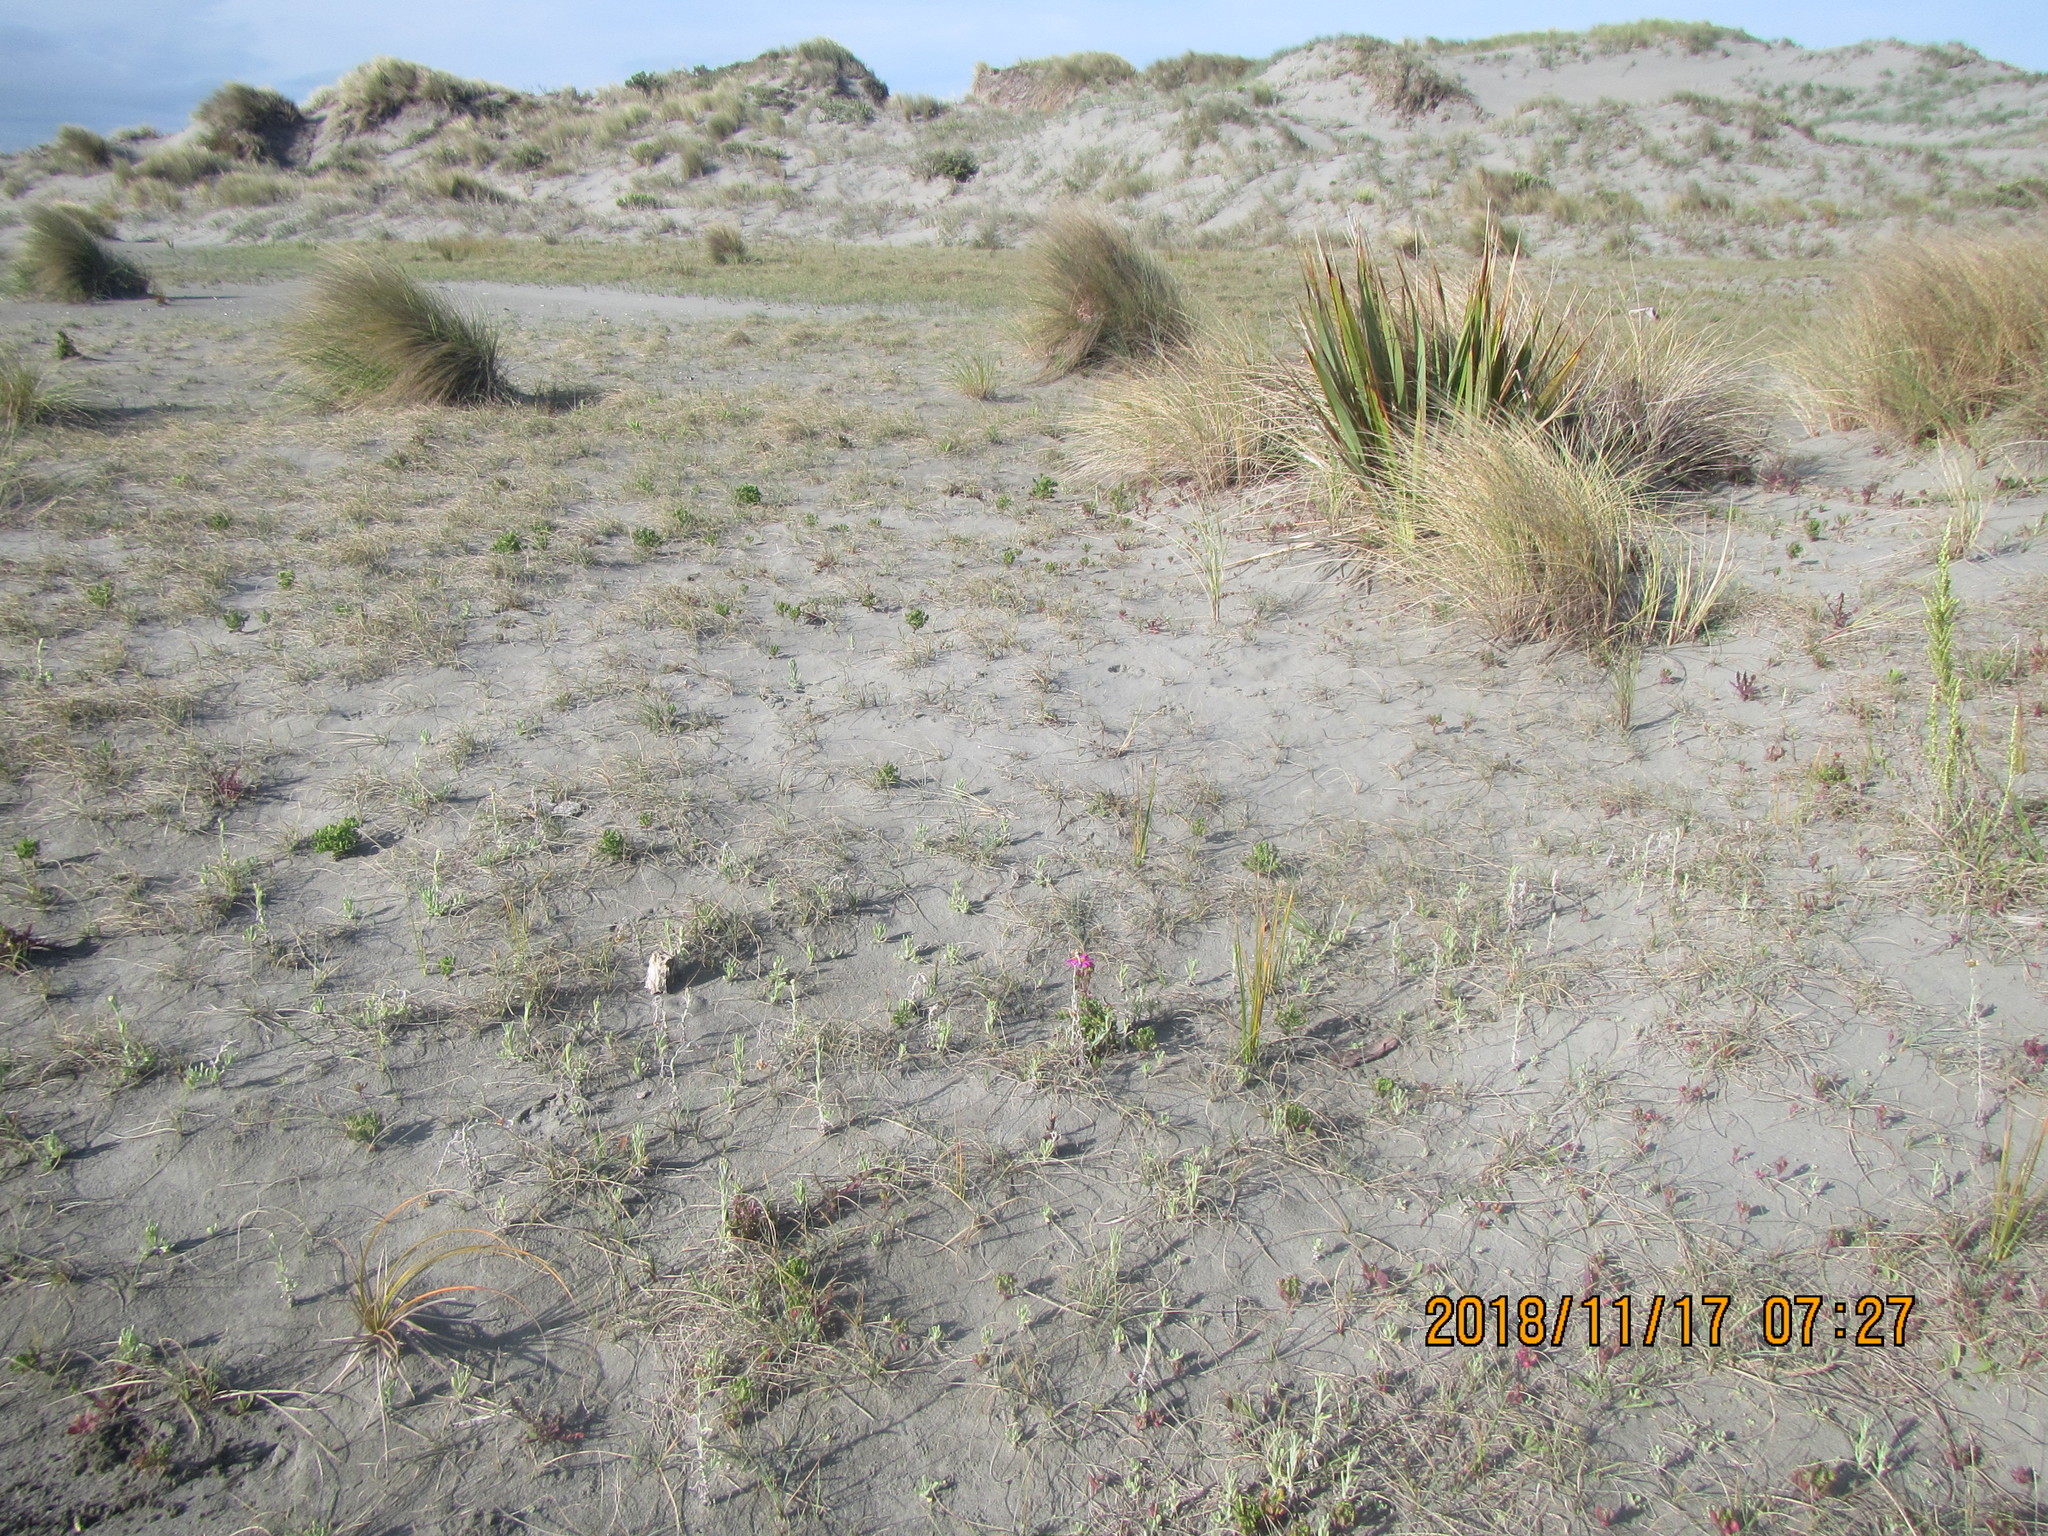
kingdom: Plantae
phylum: Tracheophyta
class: Magnoliopsida
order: Asterales
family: Asteraceae
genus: Helichrysum
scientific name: Helichrysum luteoalbum
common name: Daisy
